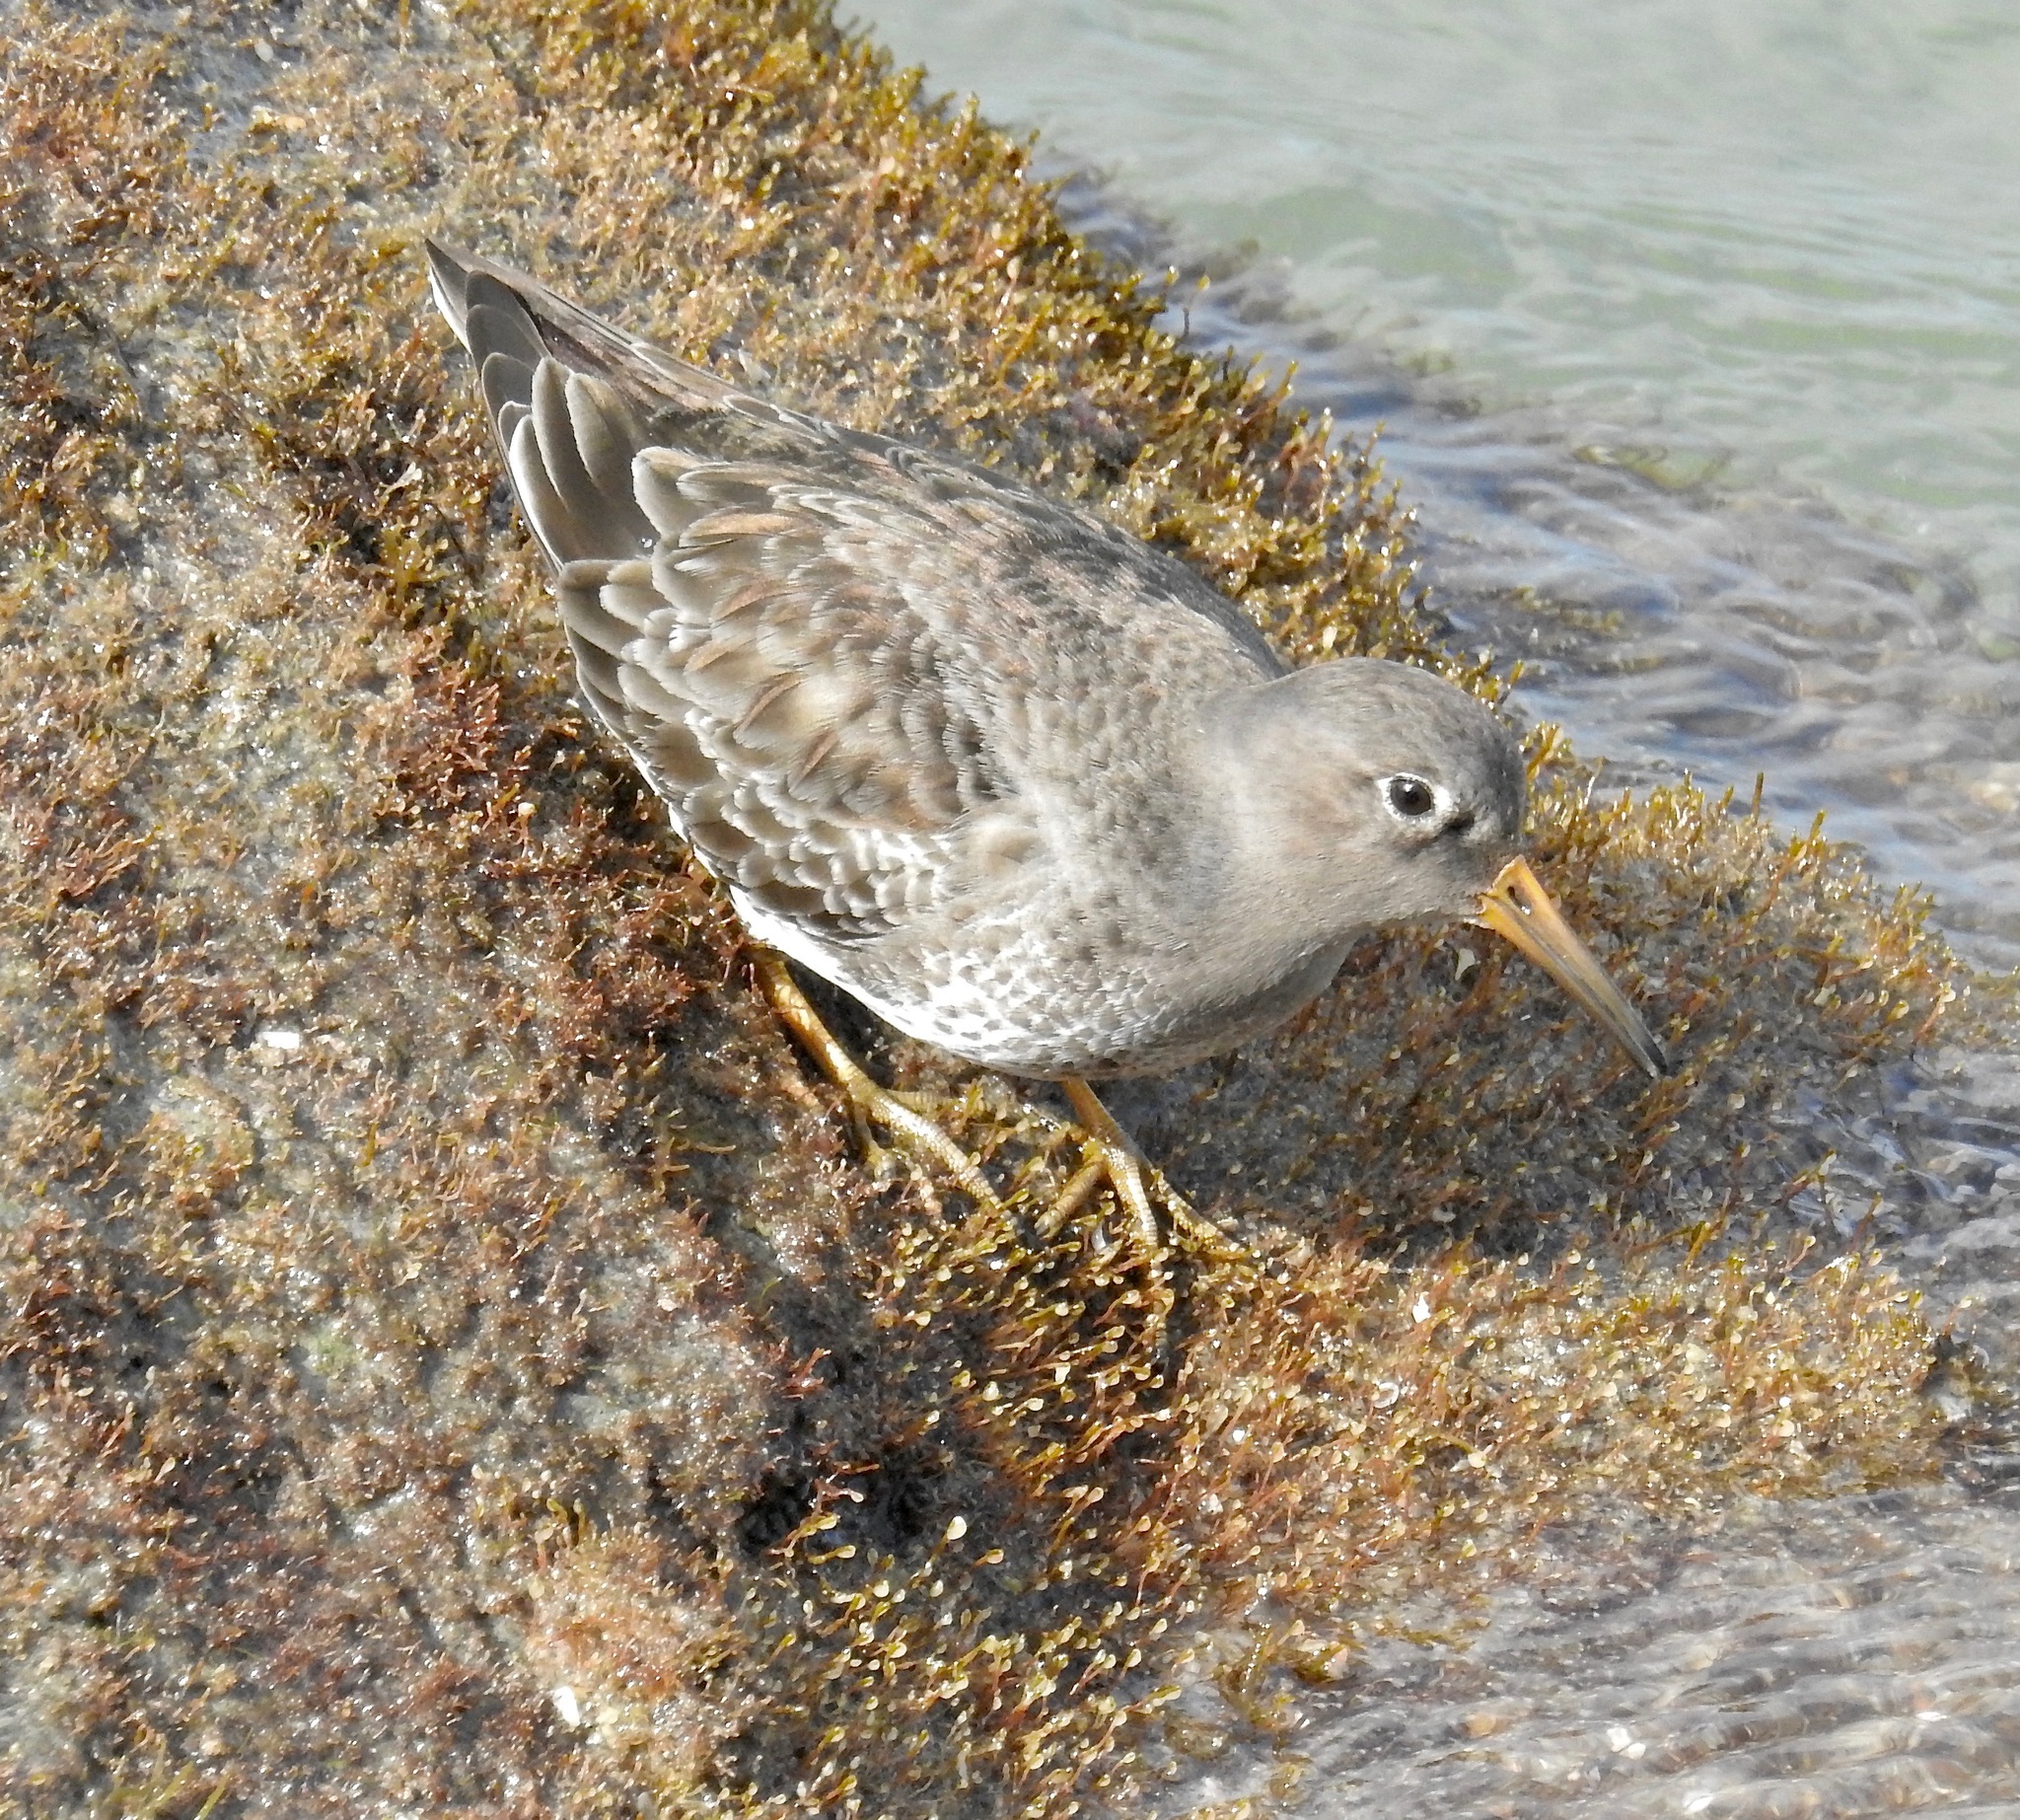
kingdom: Animalia
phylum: Chordata
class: Aves
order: Charadriiformes
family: Scolopacidae
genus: Calidris
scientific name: Calidris maritima
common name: Purple sandpiper
